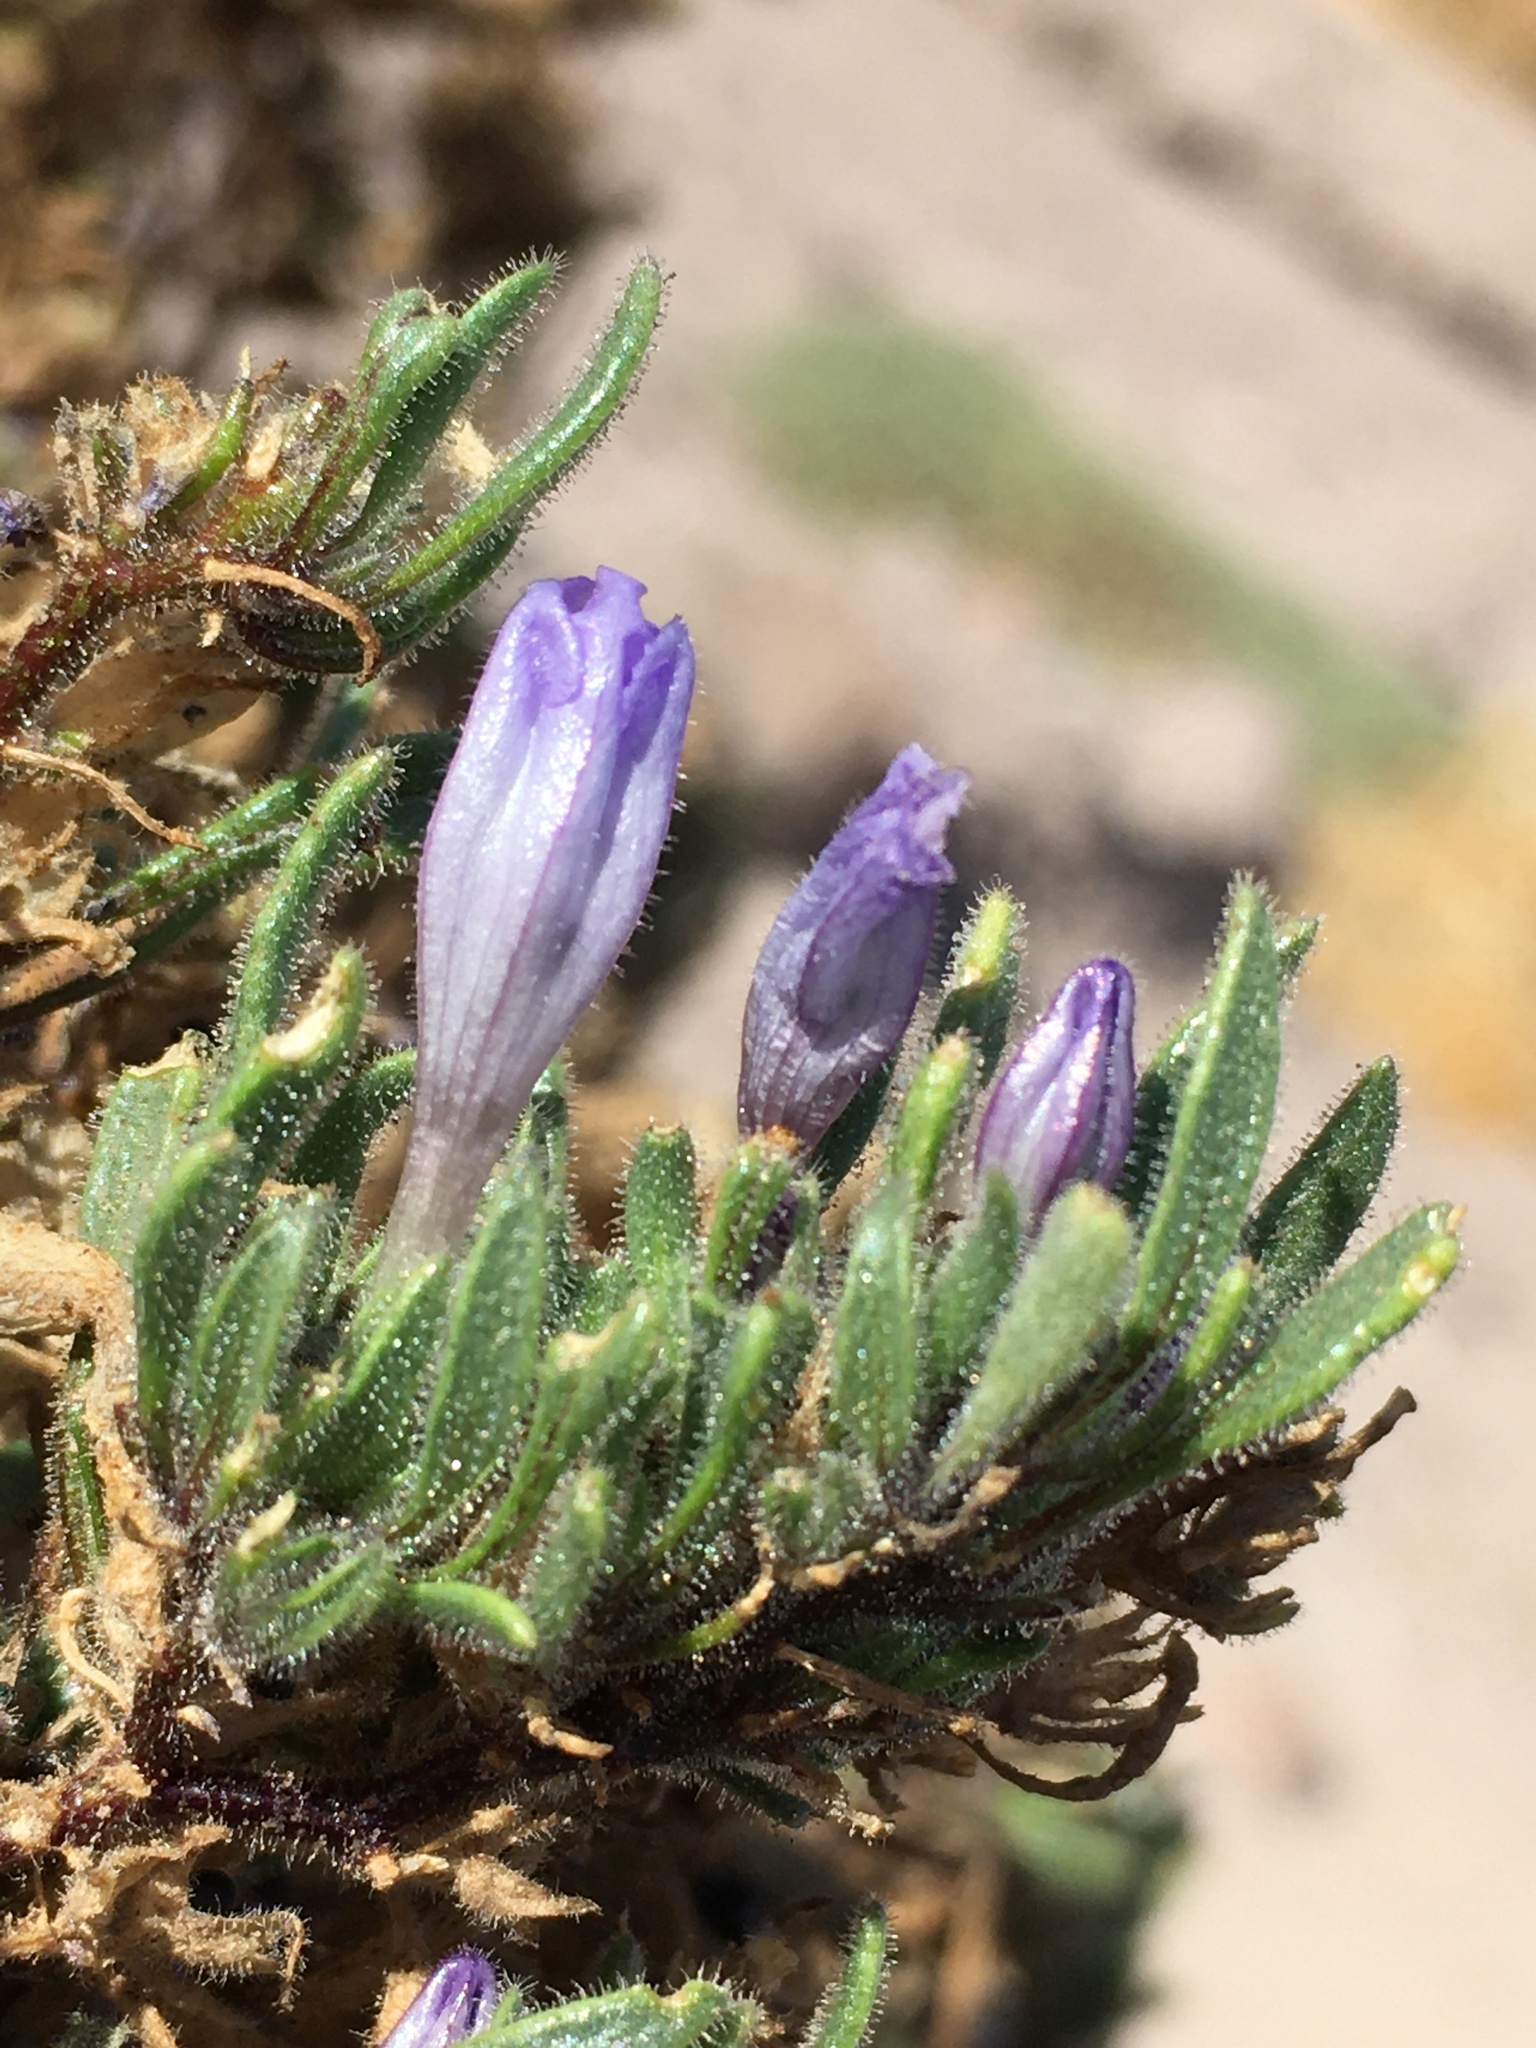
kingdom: Plantae
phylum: Tracheophyta
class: Magnoliopsida
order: Solanales
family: Solanaceae
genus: Nolana
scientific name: Nolana rhombifolia
